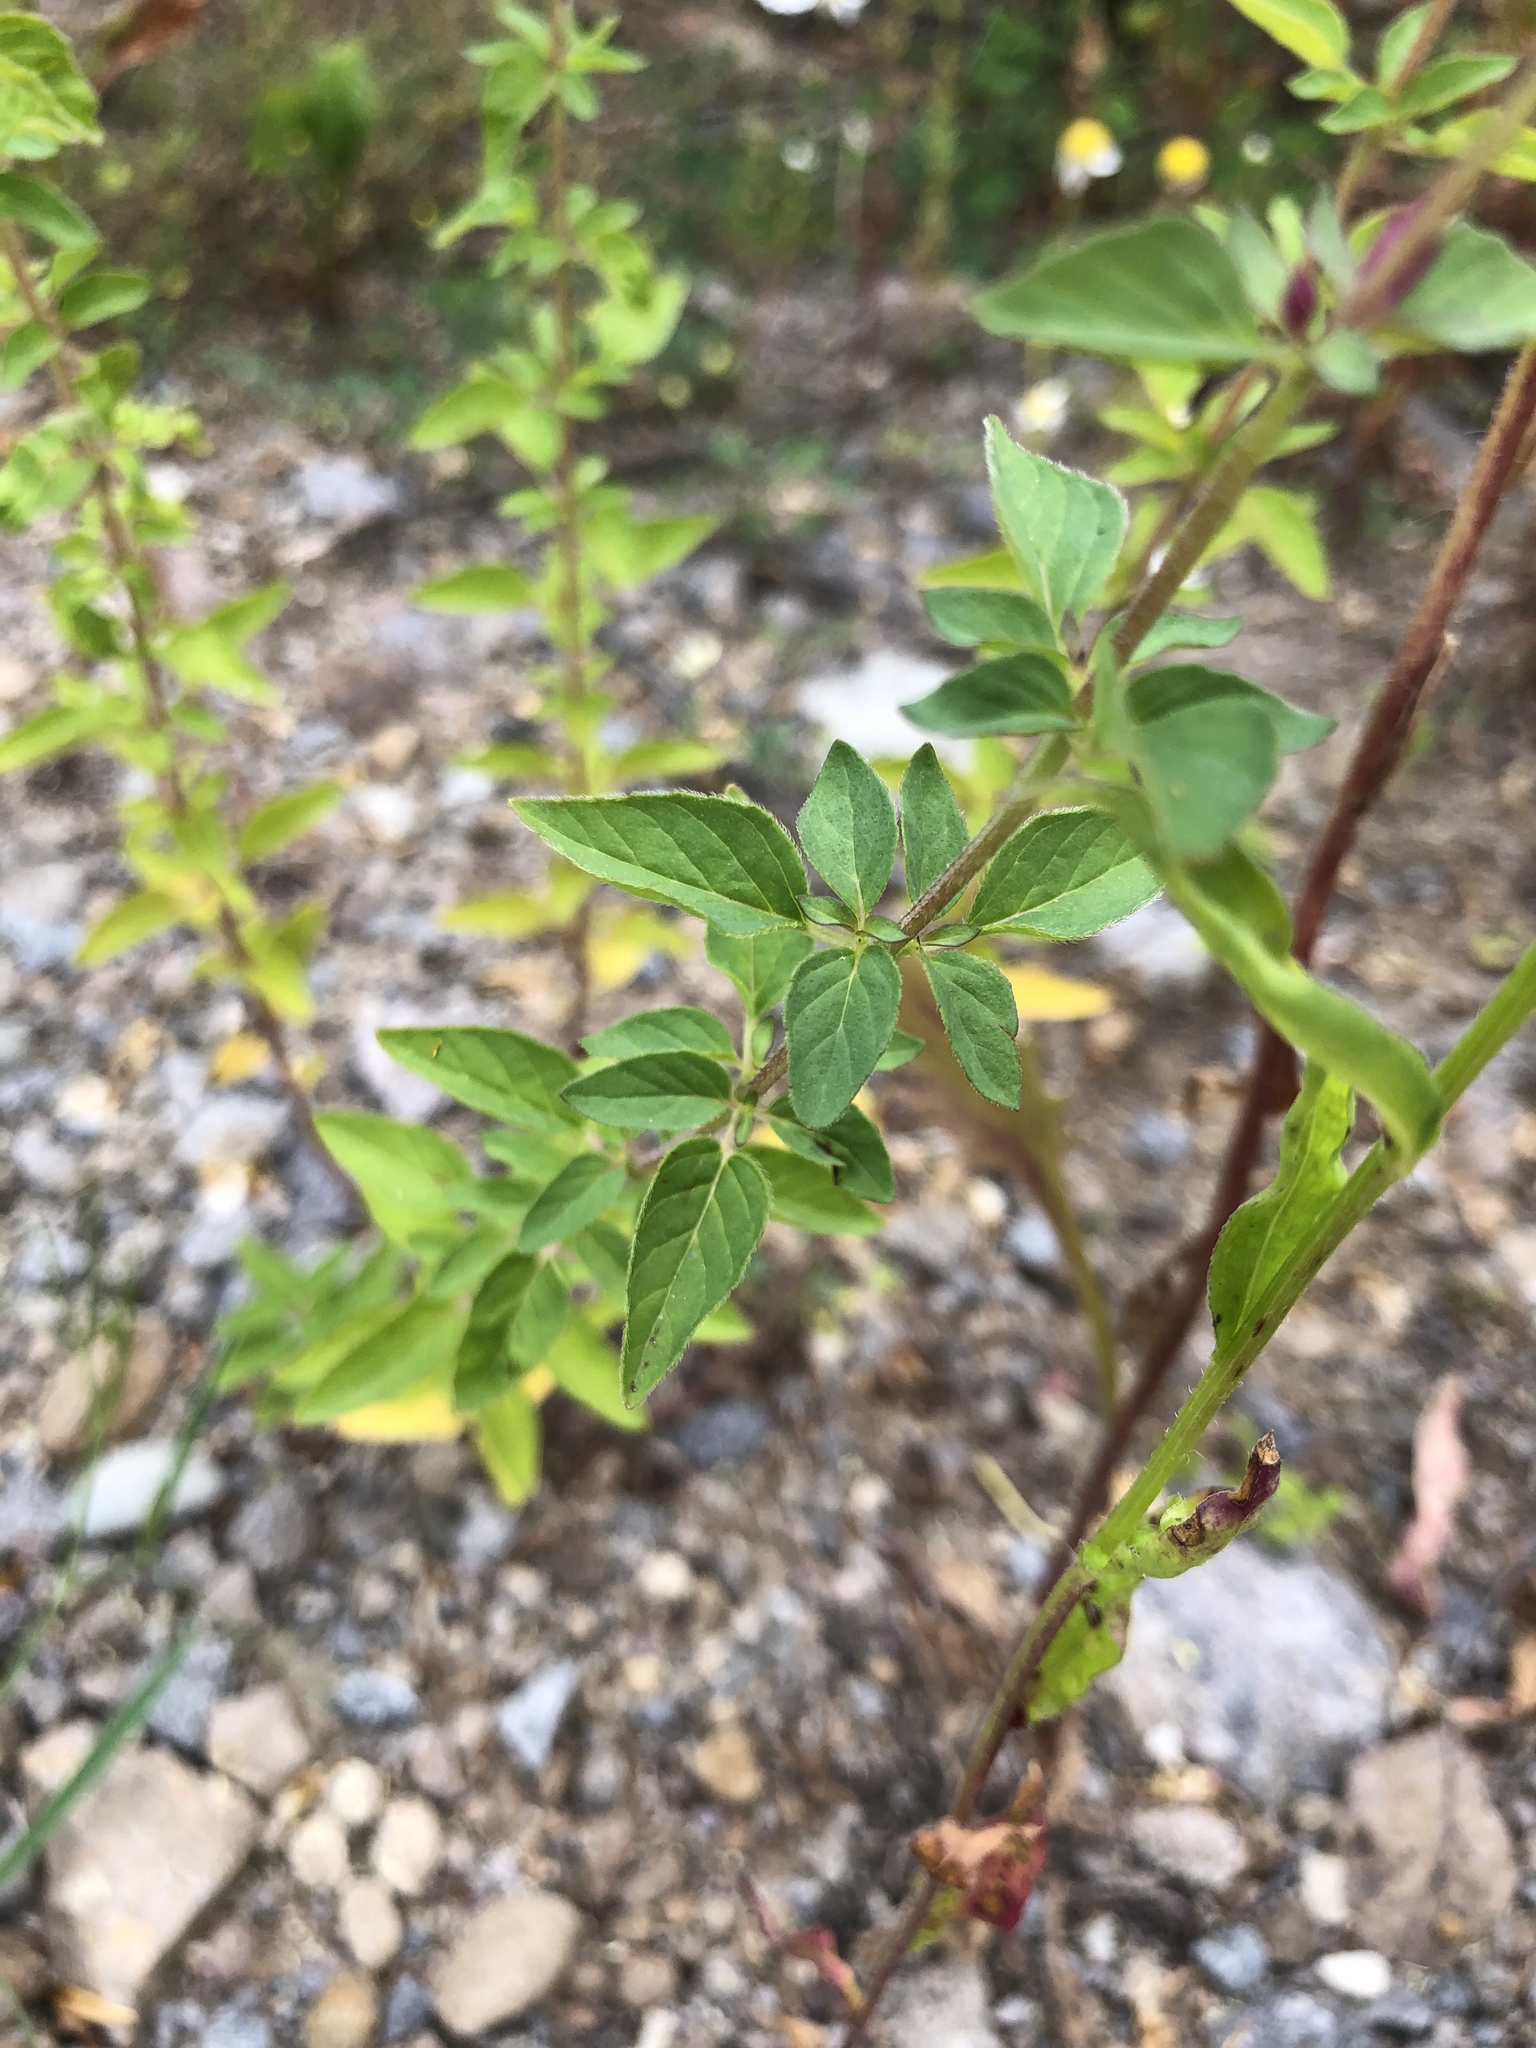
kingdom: Plantae
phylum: Tracheophyta
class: Magnoliopsida
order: Lamiales
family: Lamiaceae
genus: Origanum
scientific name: Origanum vulgare
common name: Wild marjoram
